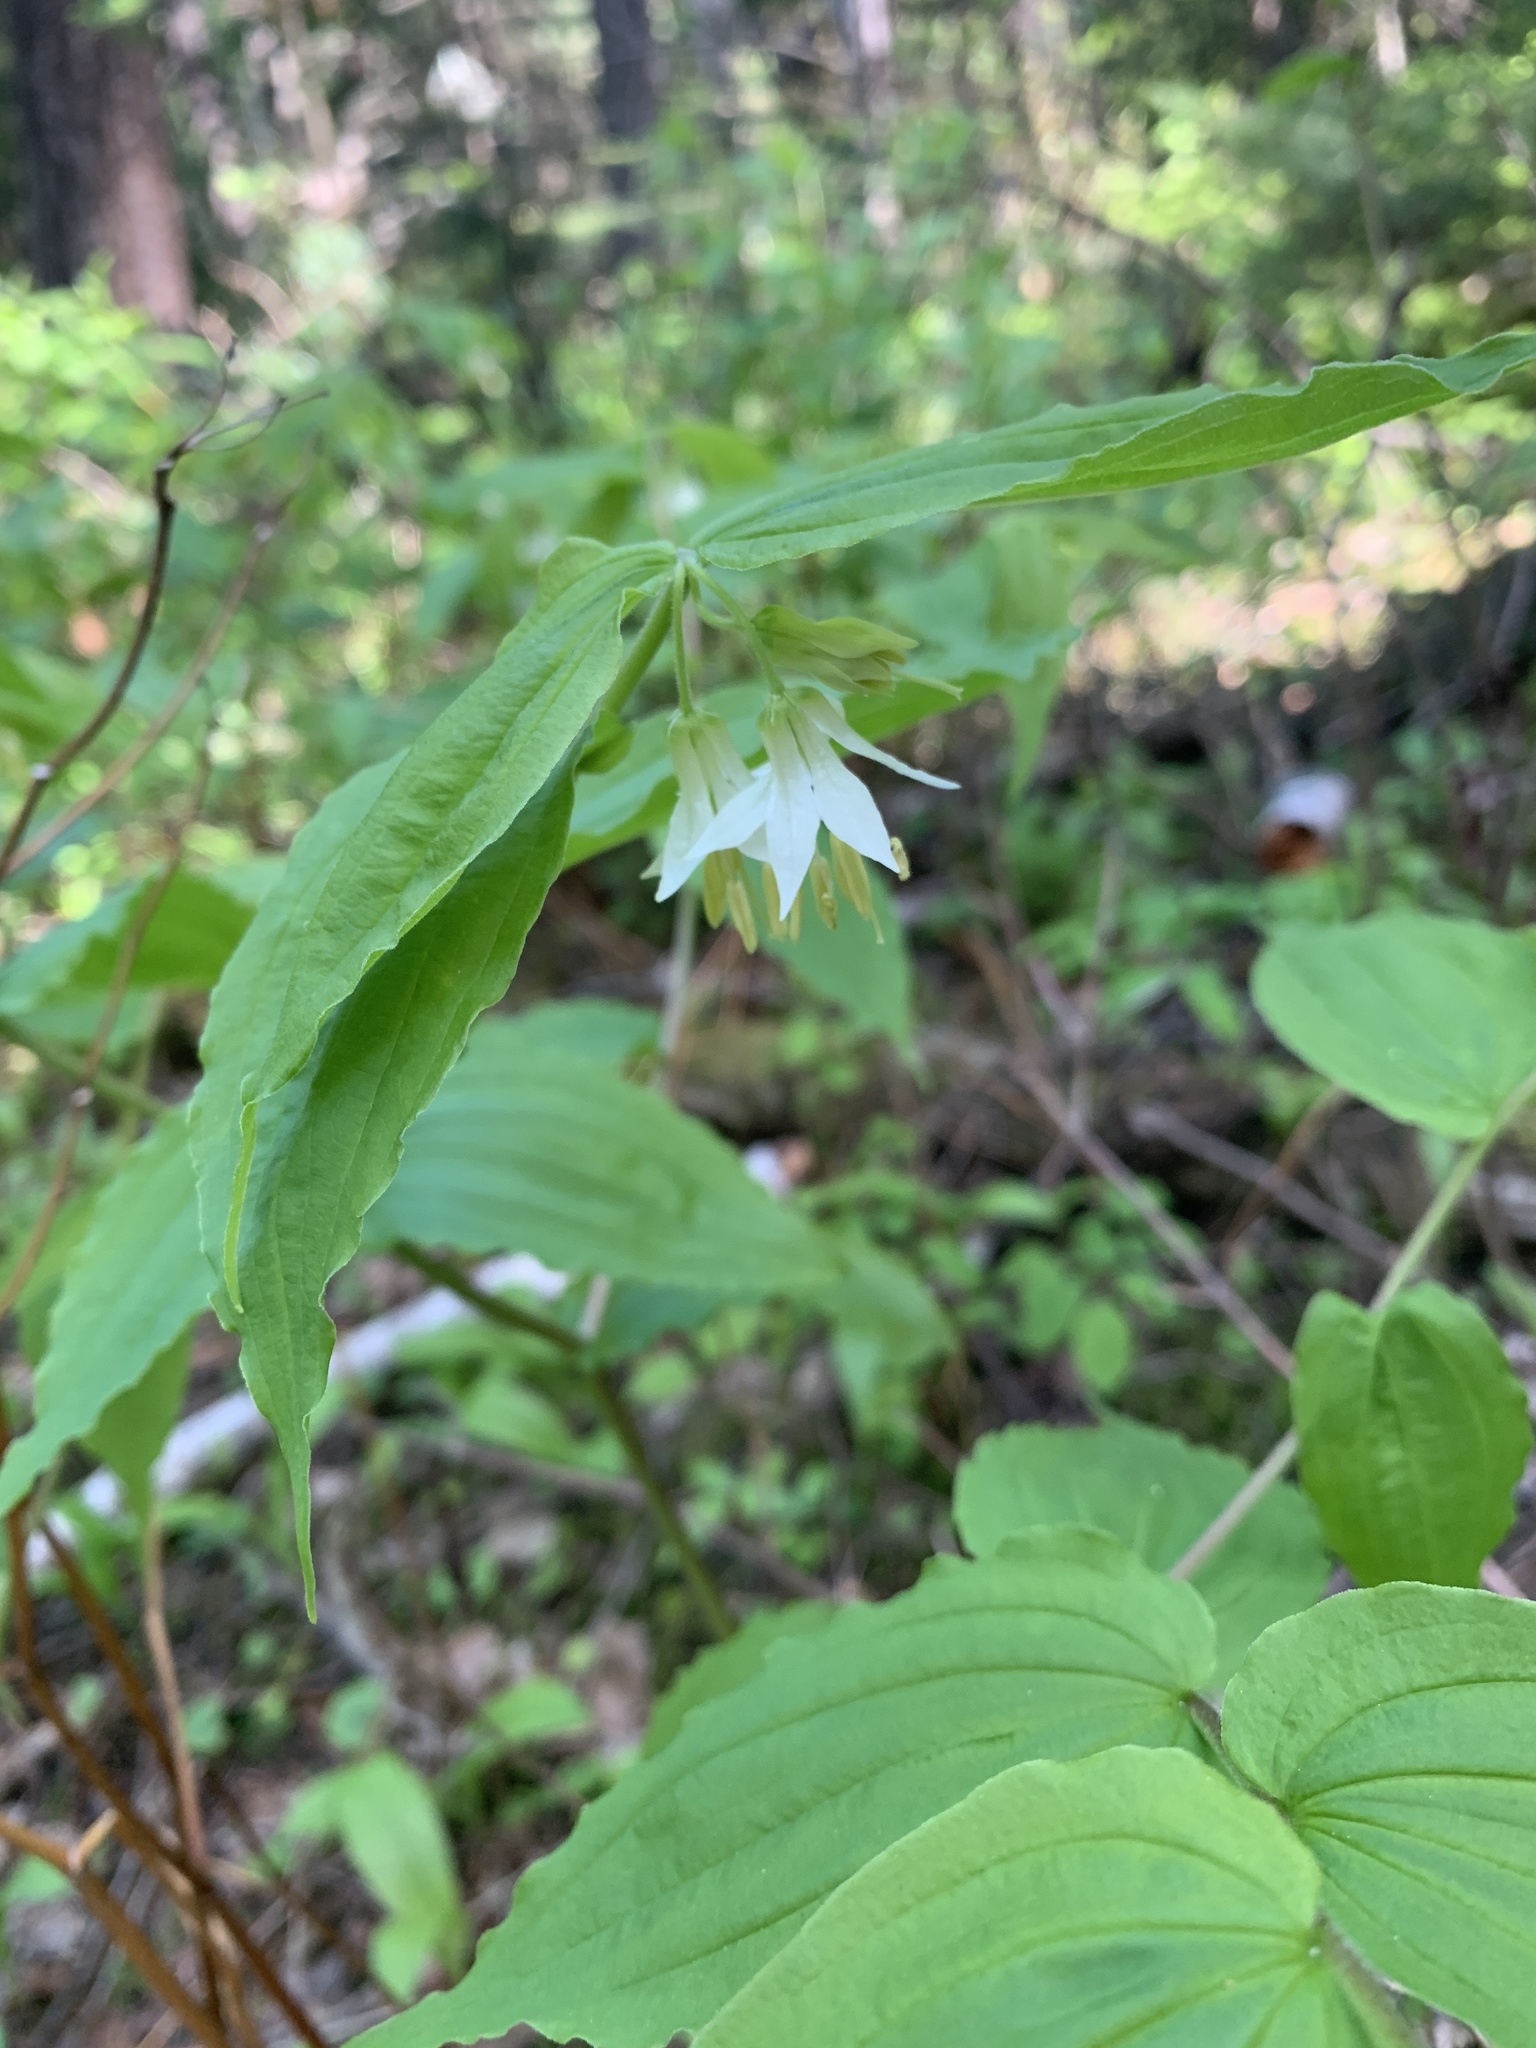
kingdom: Plantae
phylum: Tracheophyta
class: Liliopsida
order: Liliales
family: Liliaceae
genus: Prosartes
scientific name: Prosartes hookeri
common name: Fairy-bells
